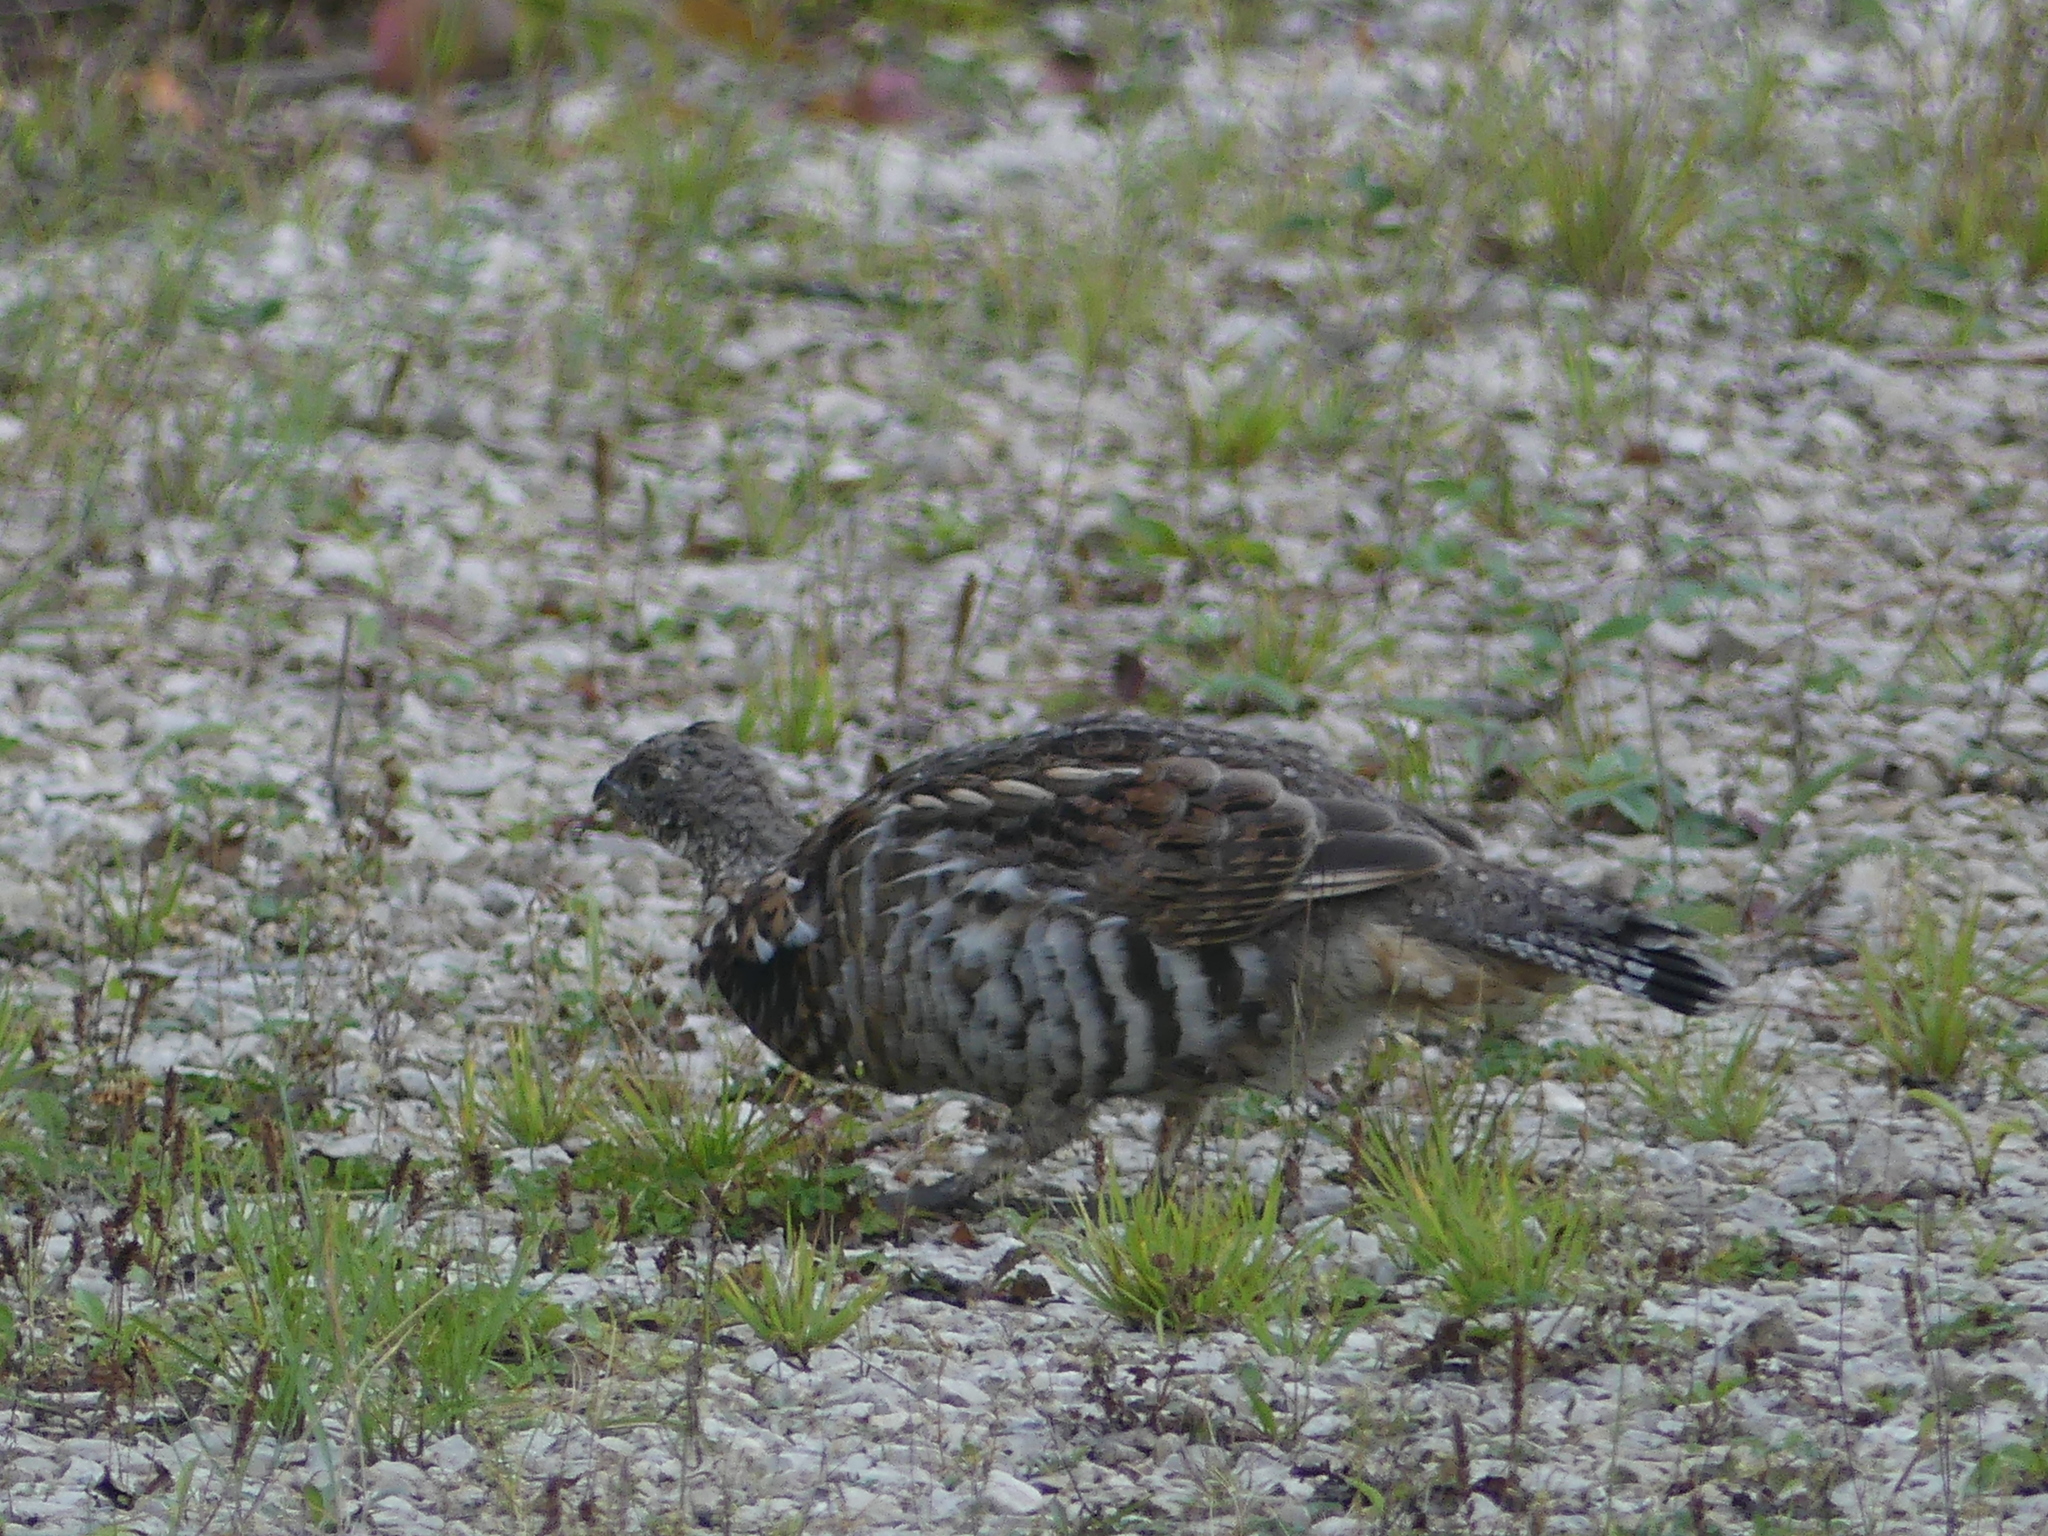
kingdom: Animalia
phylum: Chordata
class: Aves
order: Galliformes
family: Phasianidae
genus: Bonasa
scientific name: Bonasa umbellus
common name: Ruffed grouse
